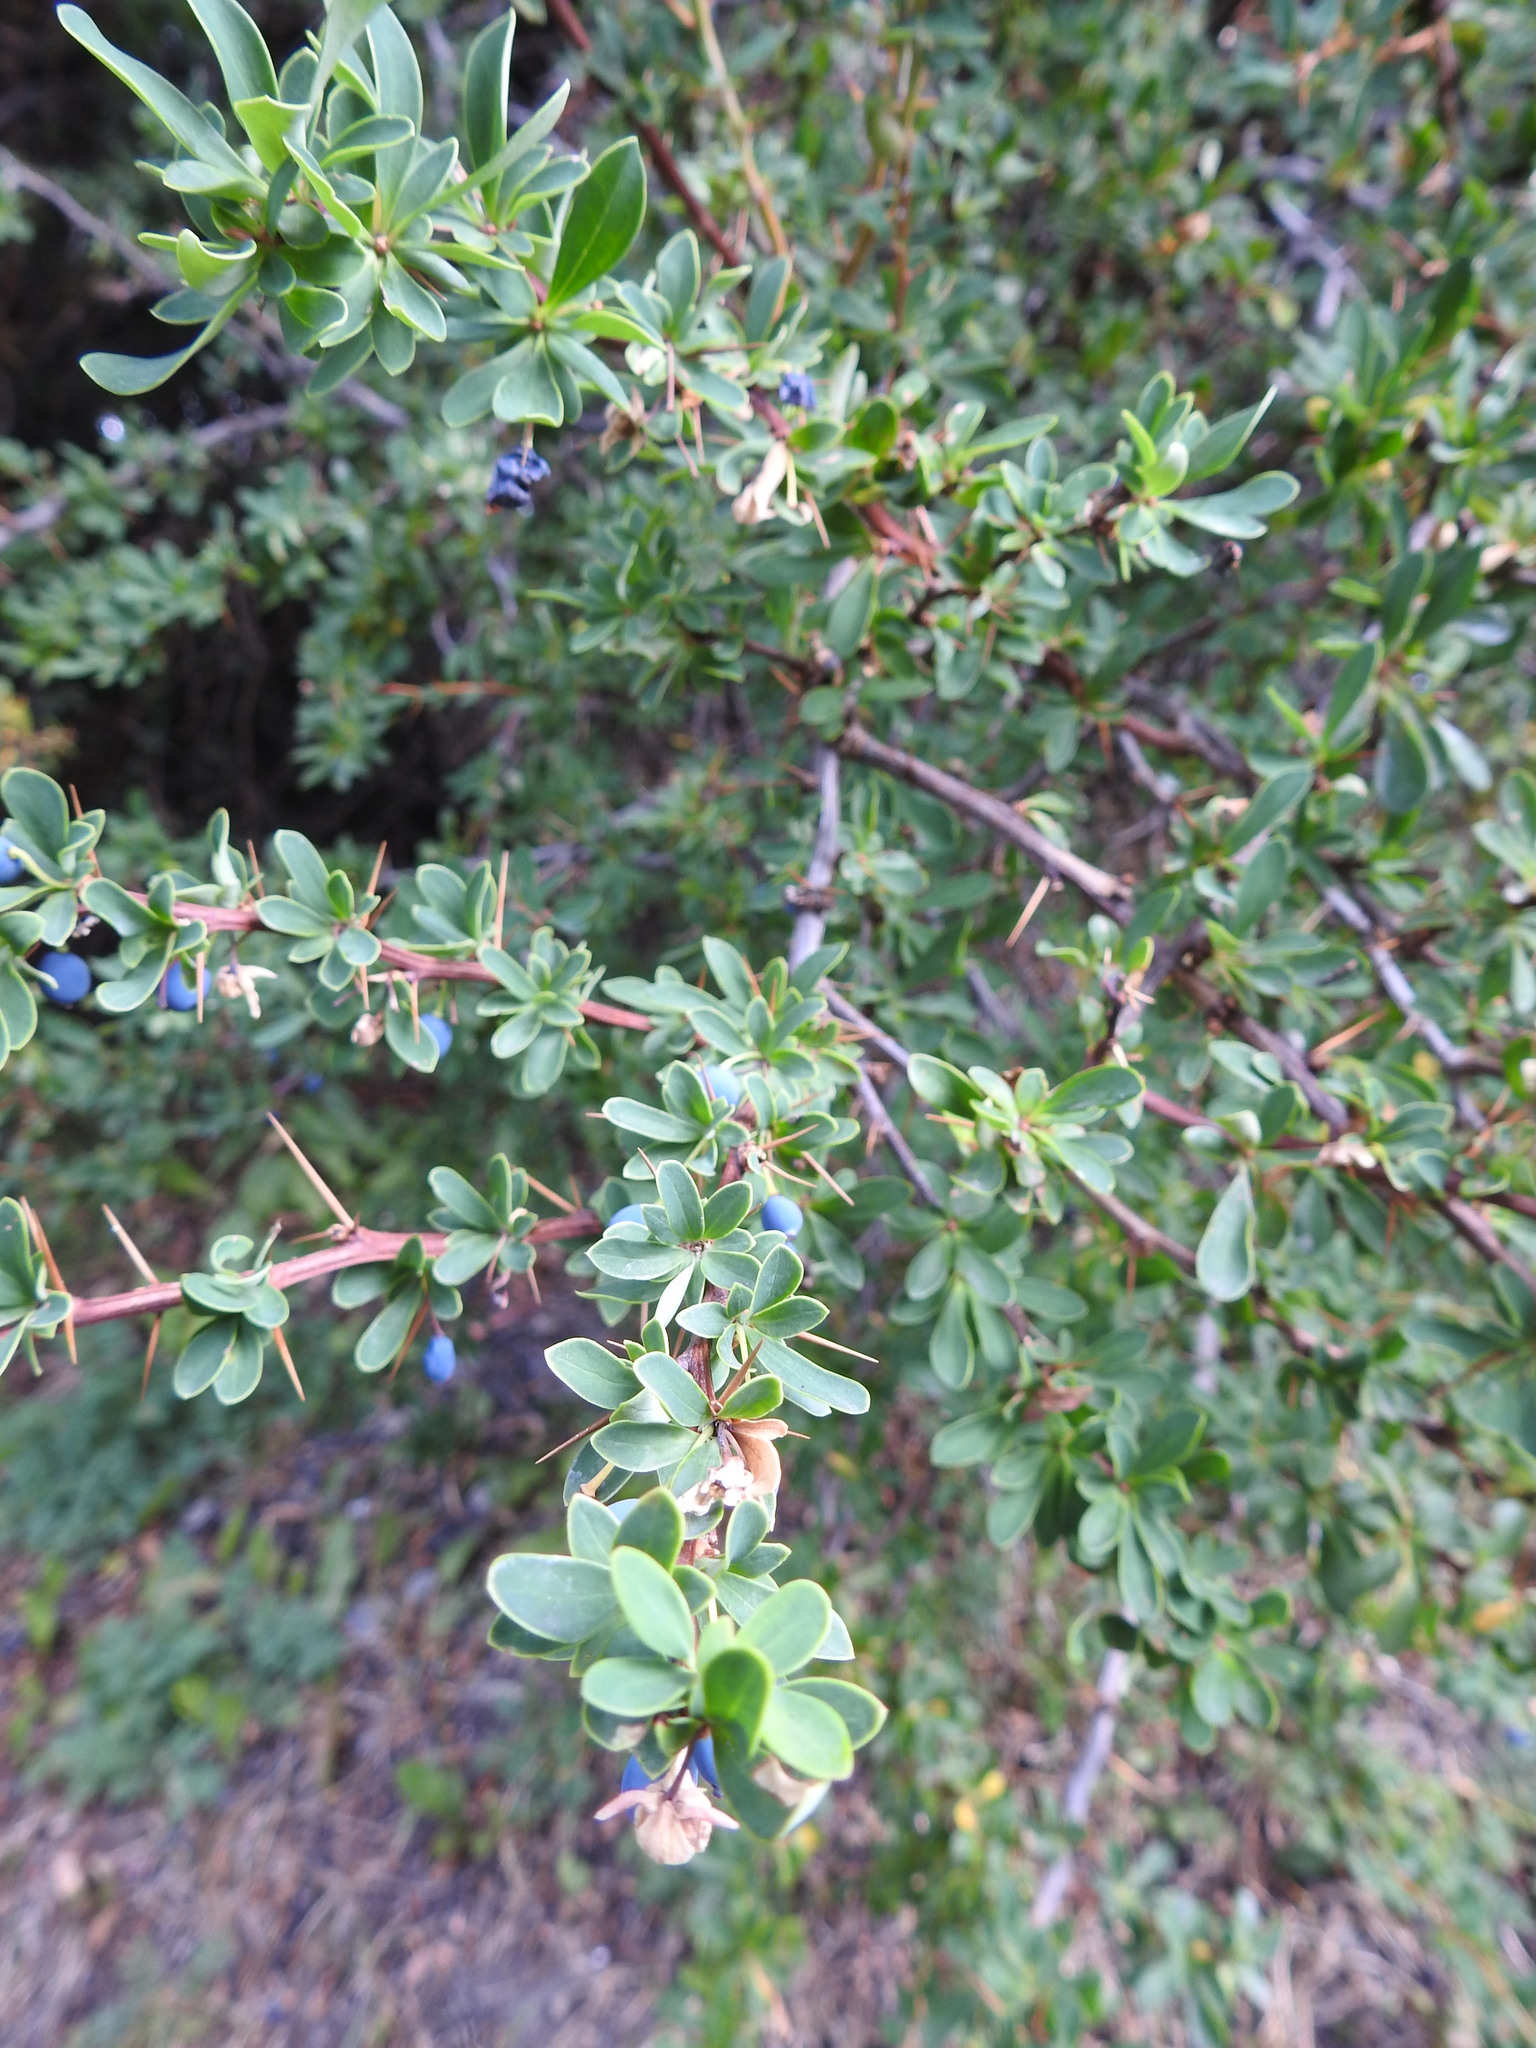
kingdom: Plantae
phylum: Tracheophyta
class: Magnoliopsida
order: Ranunculales
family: Berberidaceae
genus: Berberis
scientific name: Berberis microphylla
